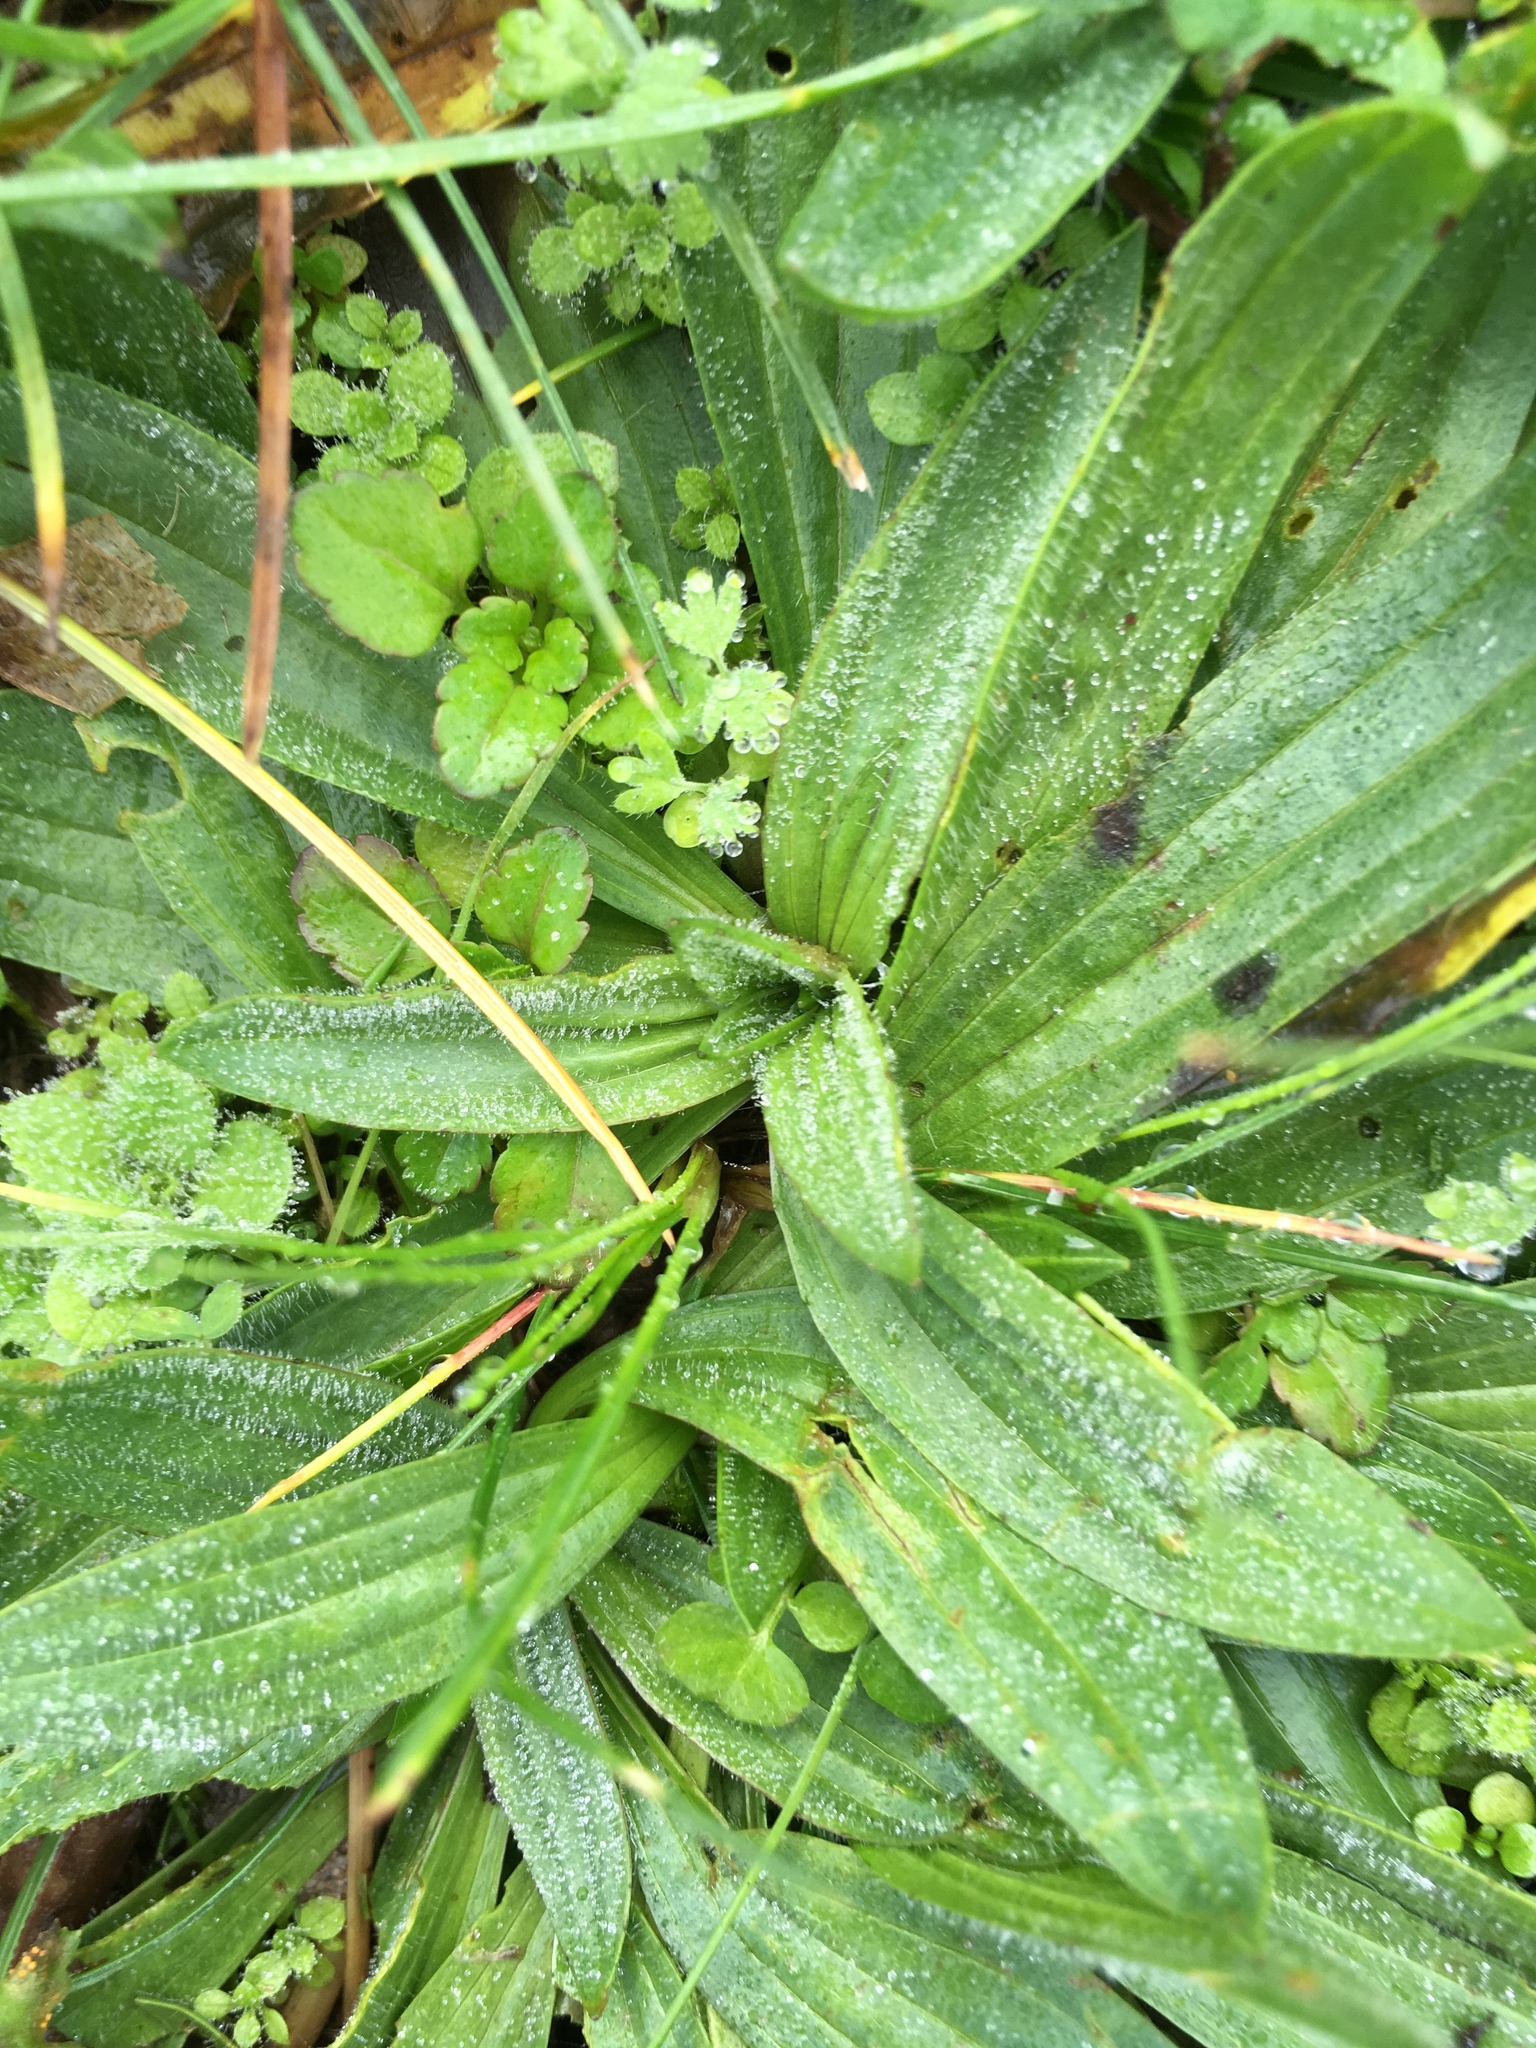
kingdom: Plantae
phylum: Tracheophyta
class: Magnoliopsida
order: Lamiales
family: Plantaginaceae
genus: Plantago
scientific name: Plantago lanceolata
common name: Ribwort plantain
